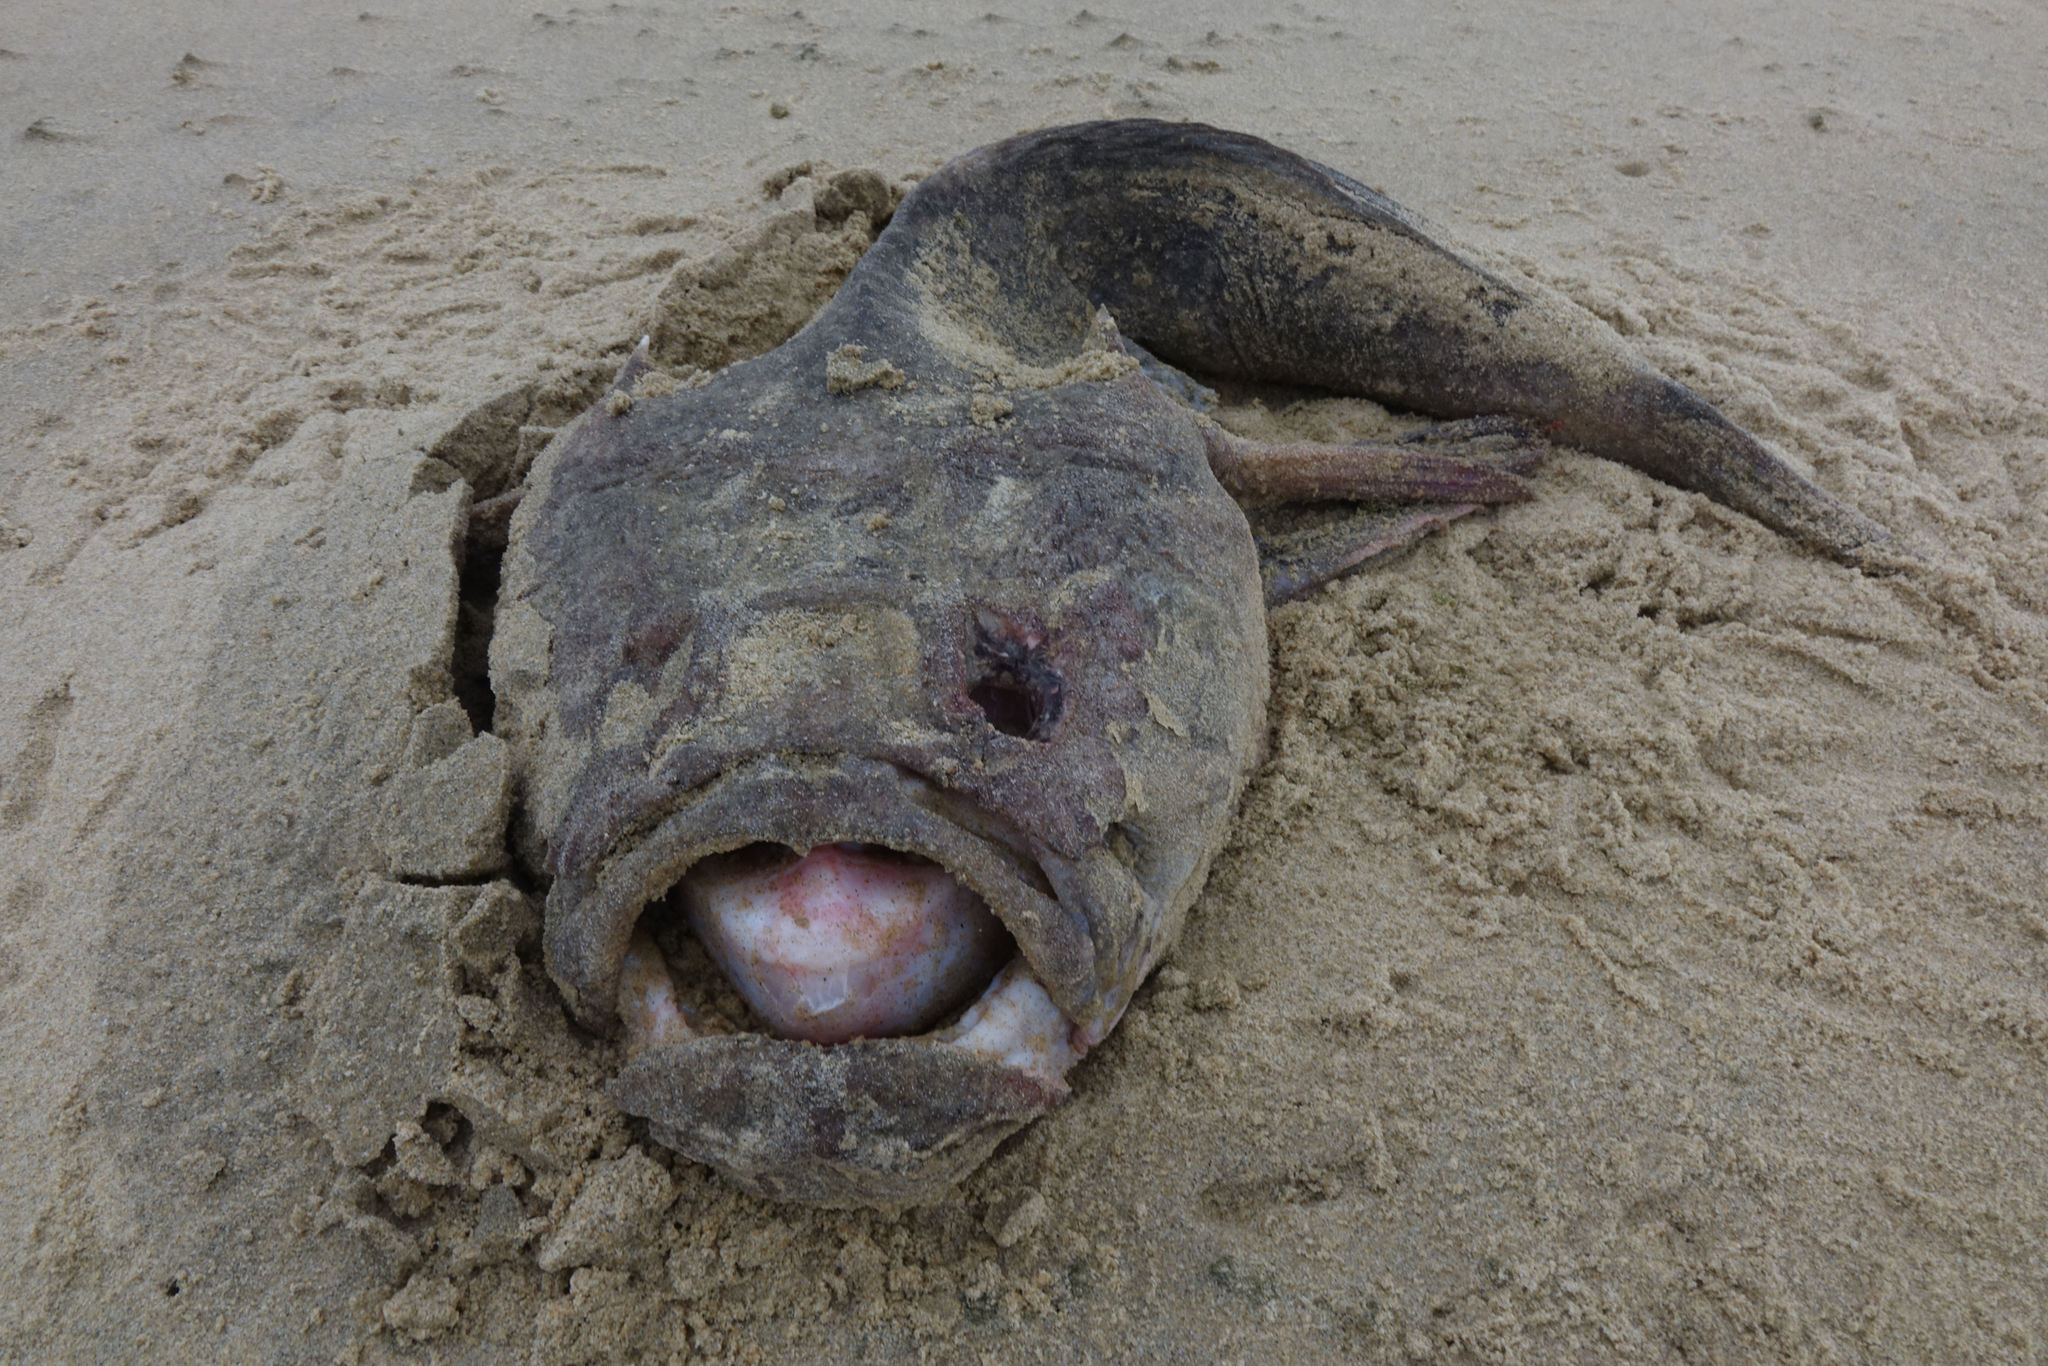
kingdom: Animalia
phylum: Chordata
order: Perciformes
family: Uranoscopidae
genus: Kathetostoma
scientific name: Kathetostoma giganteum
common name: Giant stargazer
